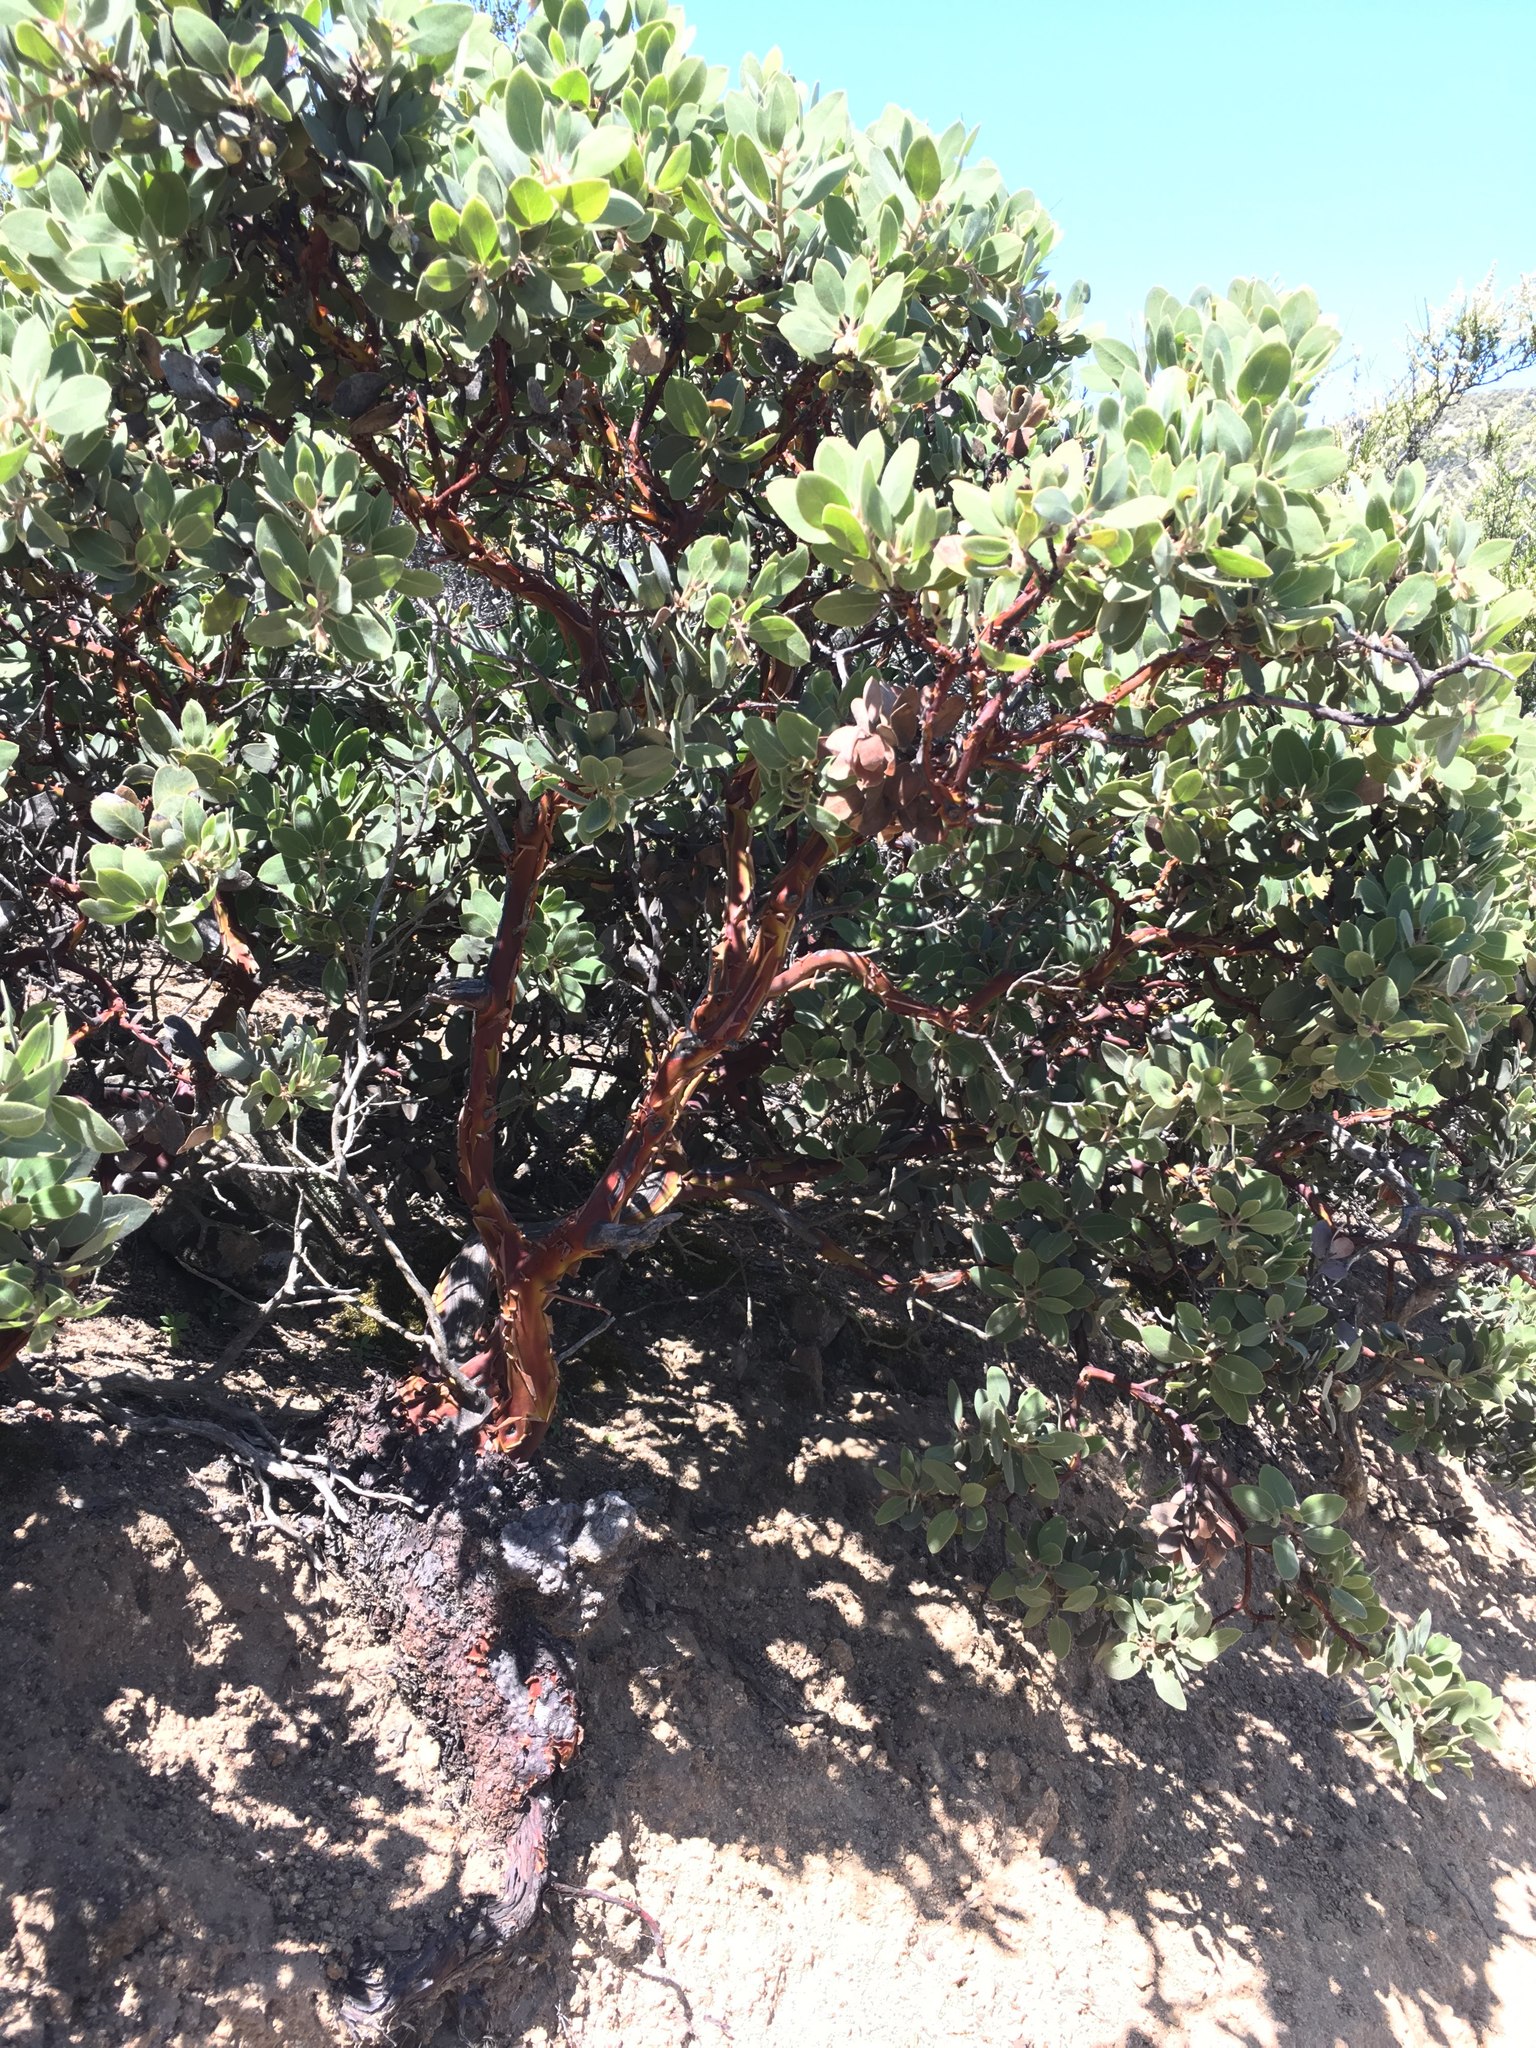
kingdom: Plantae
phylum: Tracheophyta
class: Magnoliopsida
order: Ericales
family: Ericaceae
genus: Arctostaphylos
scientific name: Arctostaphylos glandulosa
